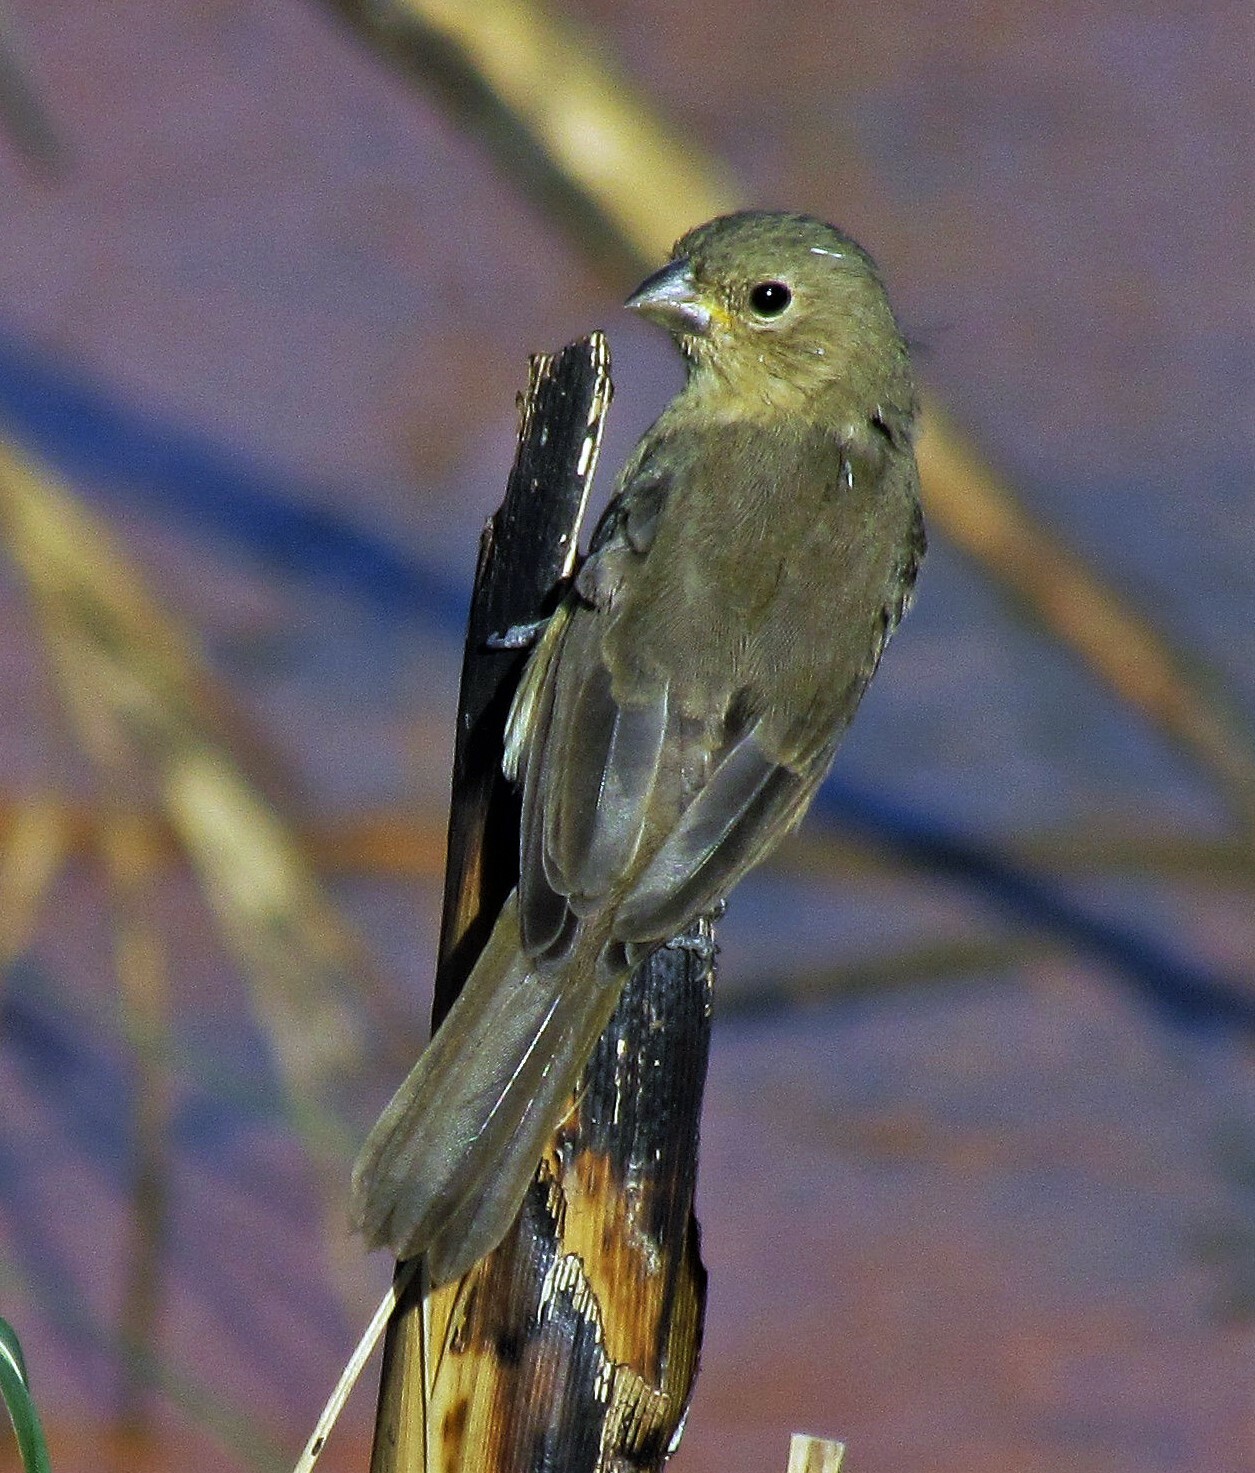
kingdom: Animalia
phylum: Chordata
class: Aves
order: Passeriformes
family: Thraupidae
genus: Sporophila
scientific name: Sporophila caerulescens
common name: Double-collared seedeater
